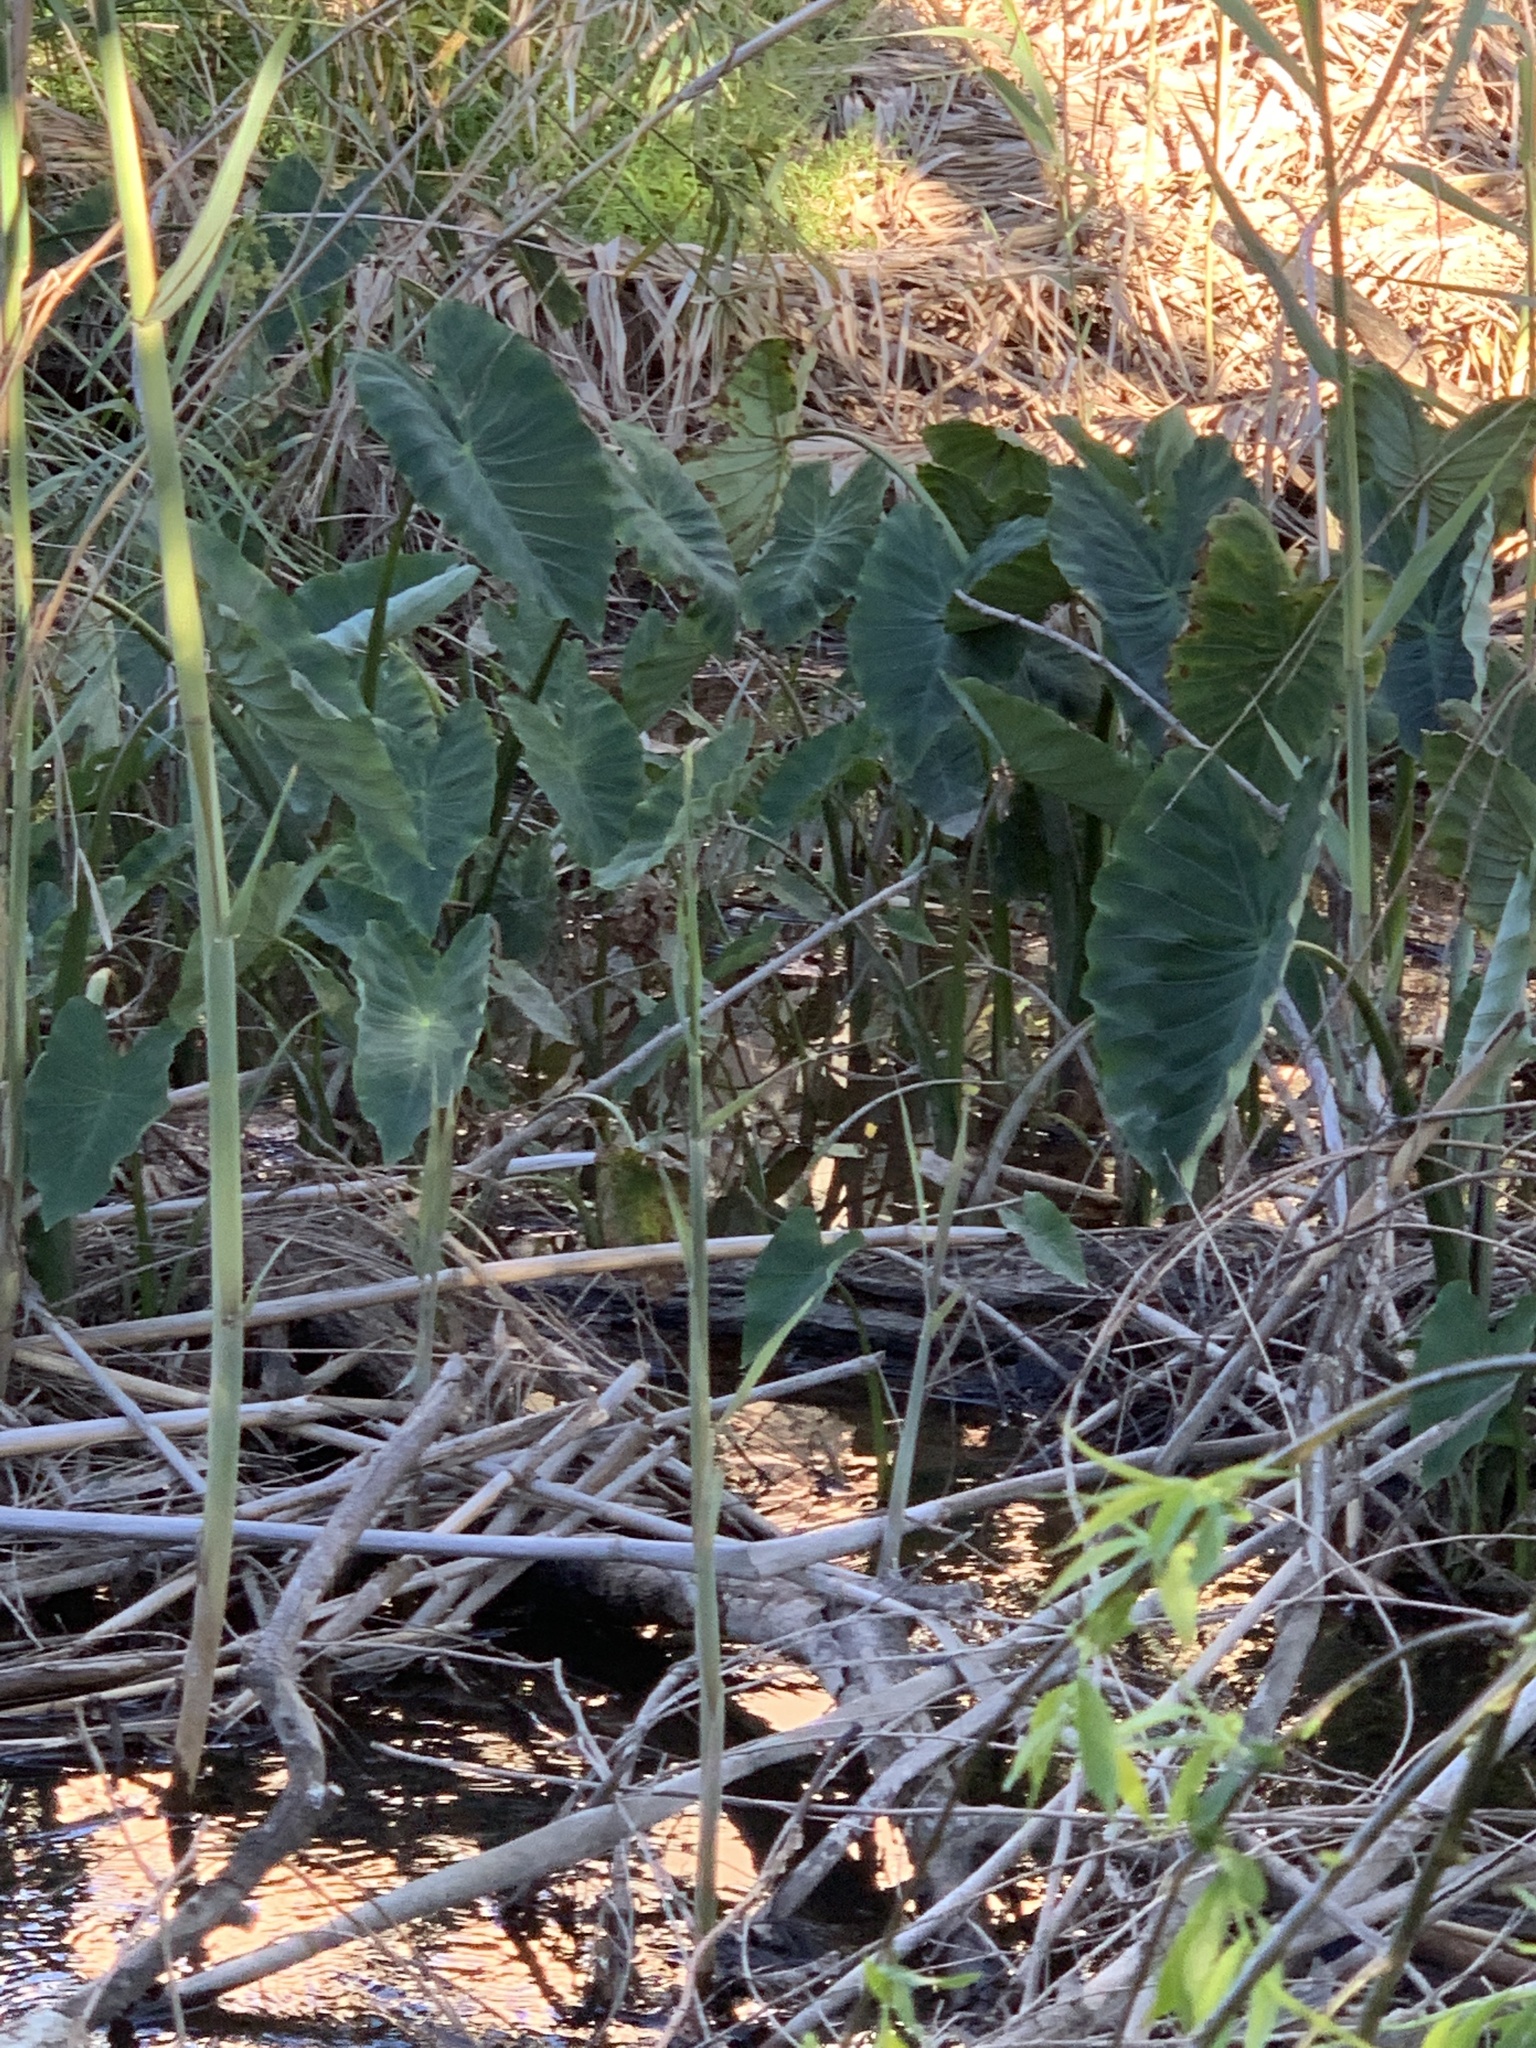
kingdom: Plantae
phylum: Tracheophyta
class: Liliopsida
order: Alismatales
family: Araceae
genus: Colocasia
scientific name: Colocasia esculenta
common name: Taro
